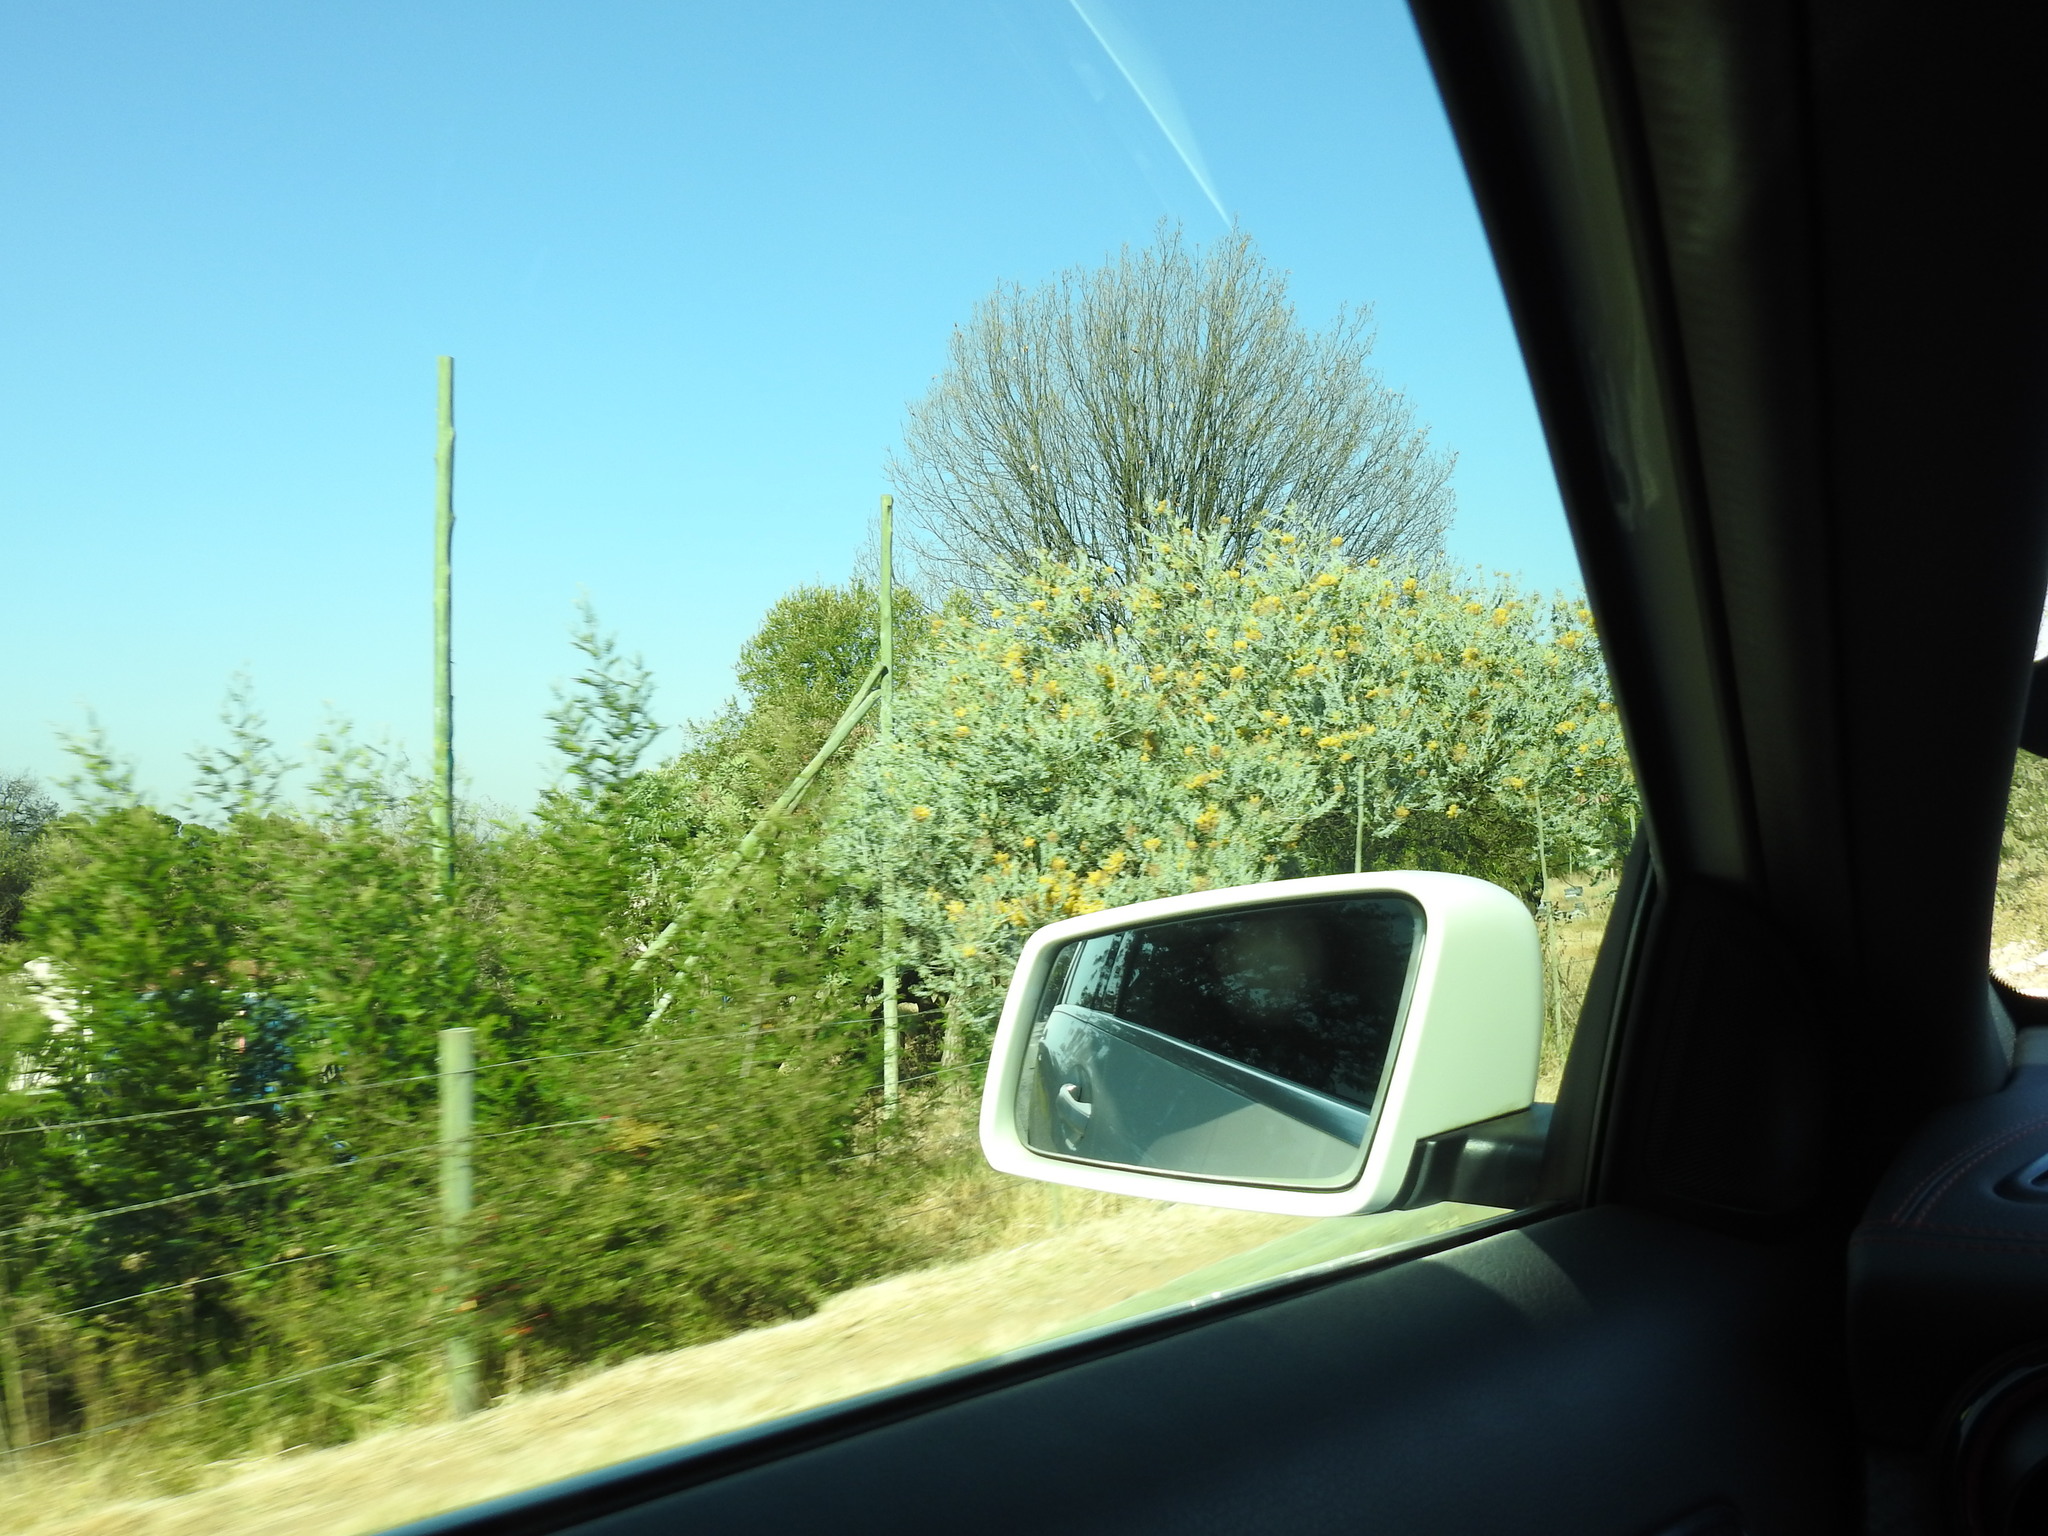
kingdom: Plantae
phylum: Tracheophyta
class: Magnoliopsida
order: Fabales
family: Fabaceae
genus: Acacia
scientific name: Acacia podalyriifolia
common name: Pearl wattle
